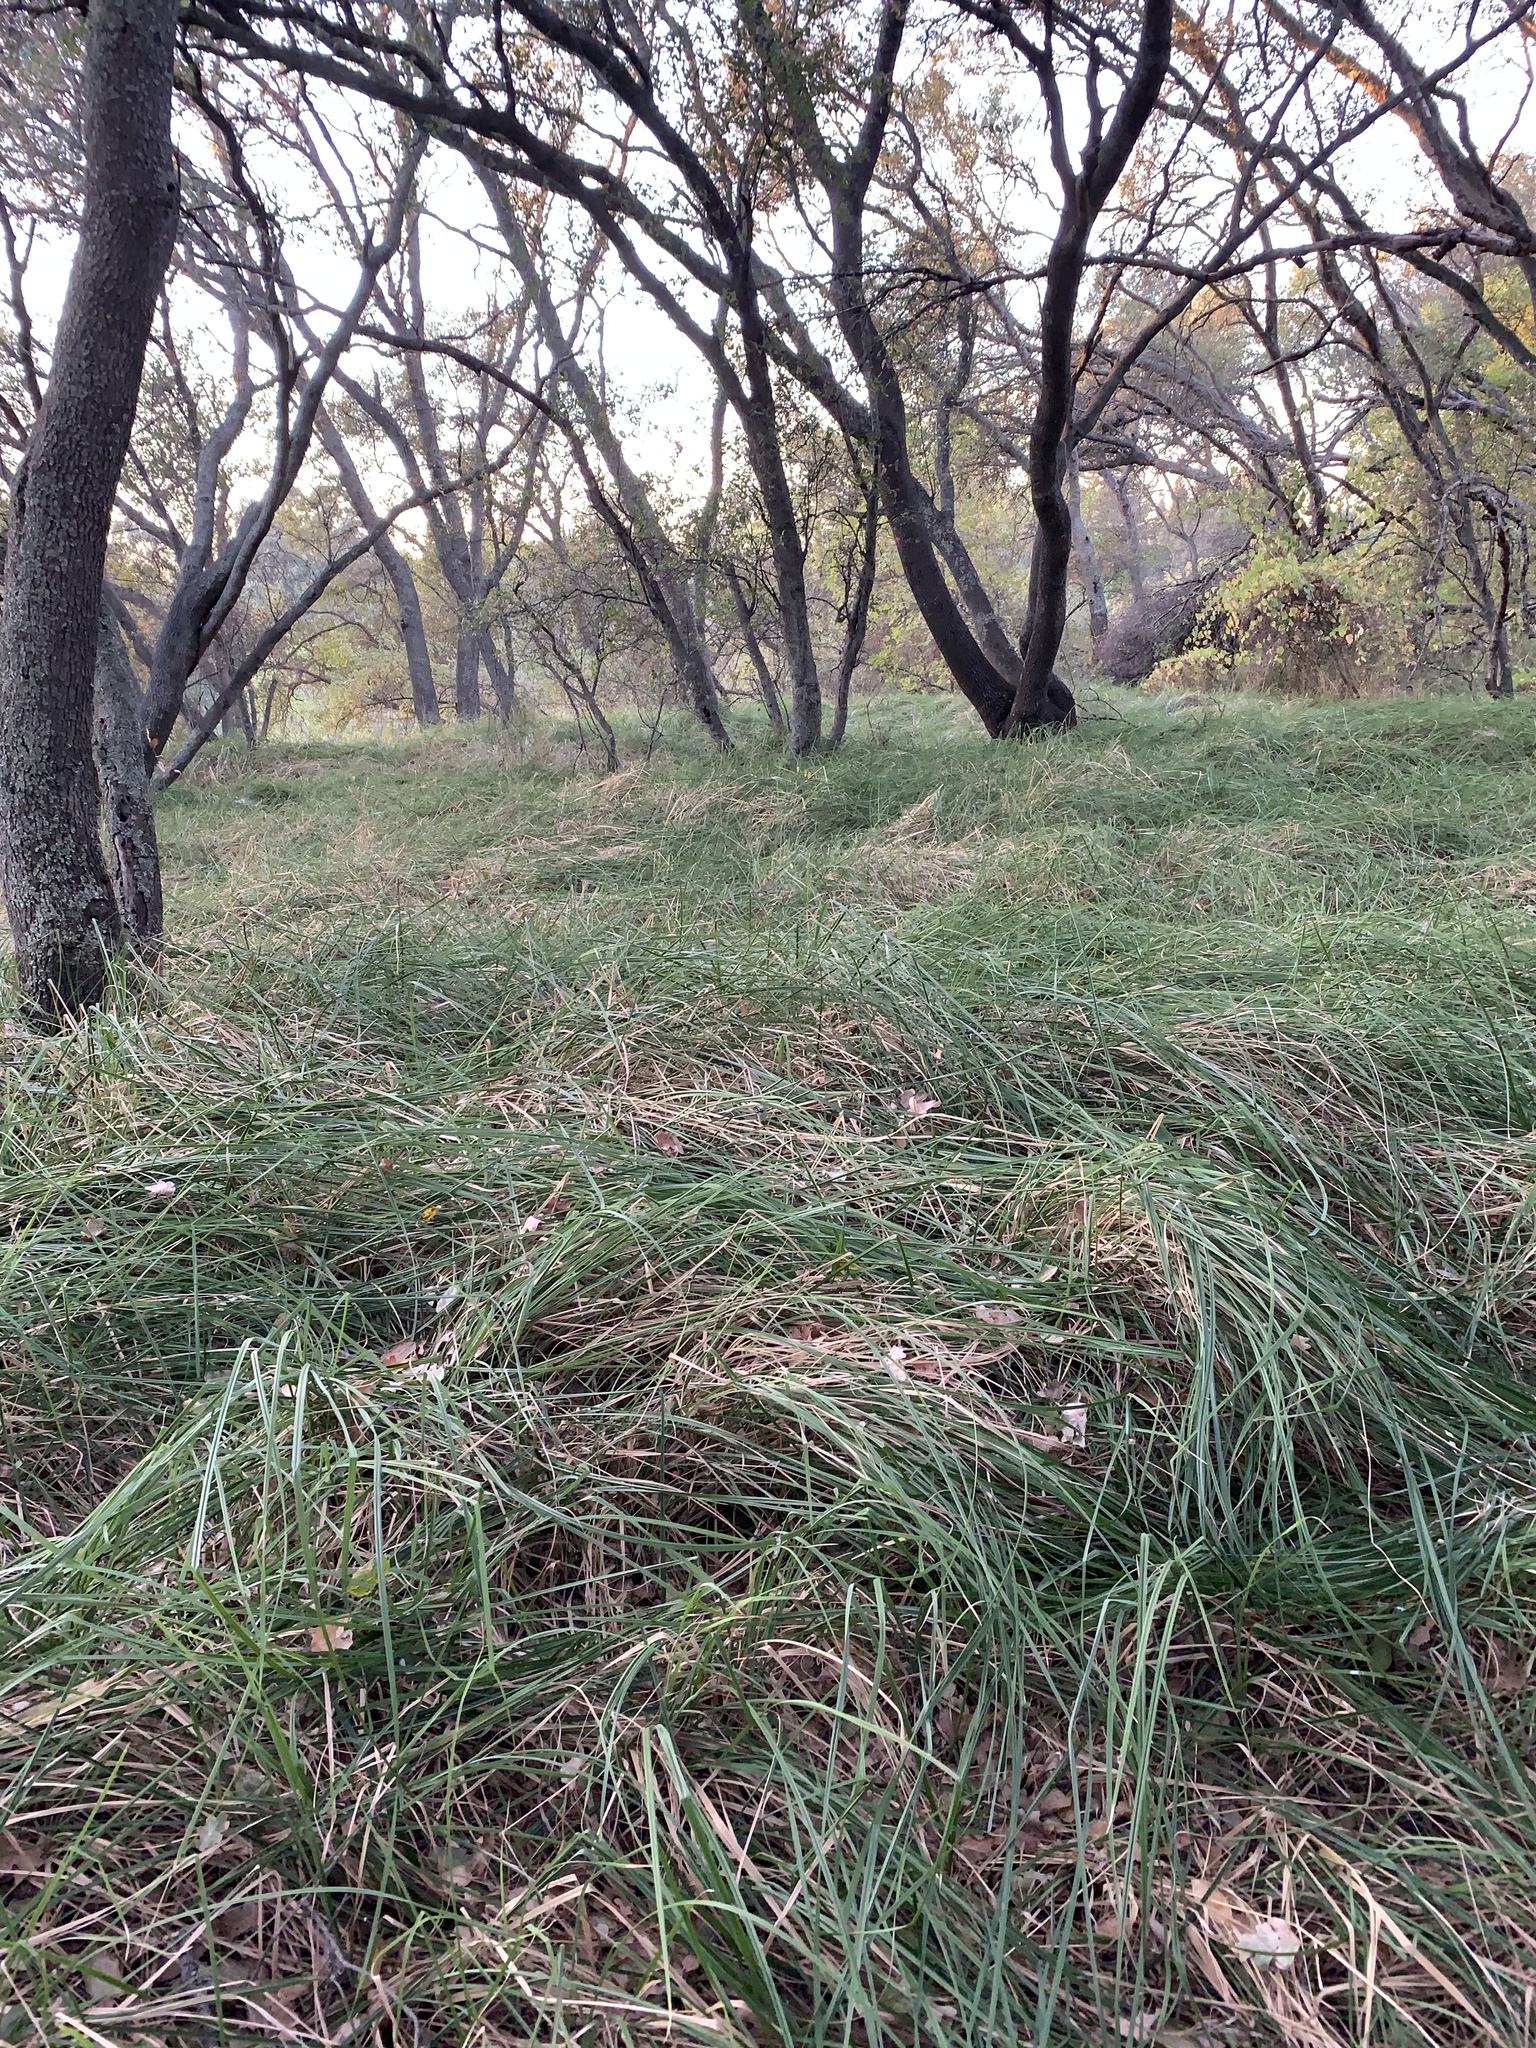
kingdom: Plantae
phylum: Tracheophyta
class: Liliopsida
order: Poales
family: Poaceae
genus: Muhlenbergia
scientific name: Muhlenbergia rigens
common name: Deer grass
